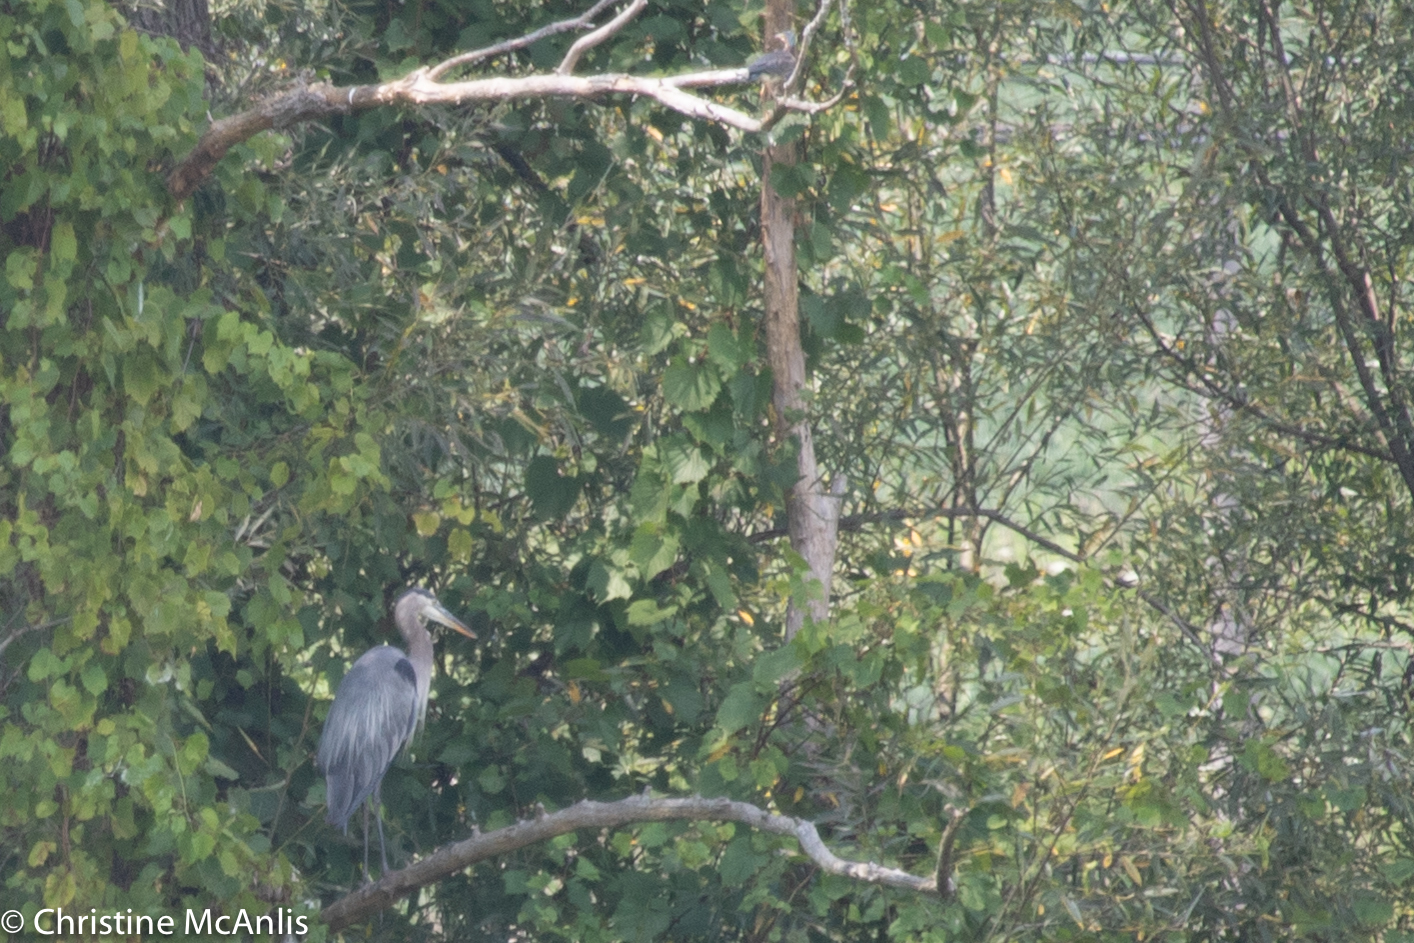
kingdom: Animalia
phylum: Chordata
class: Aves
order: Pelecaniformes
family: Ardeidae
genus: Ardea
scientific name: Ardea herodias
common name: Great blue heron
